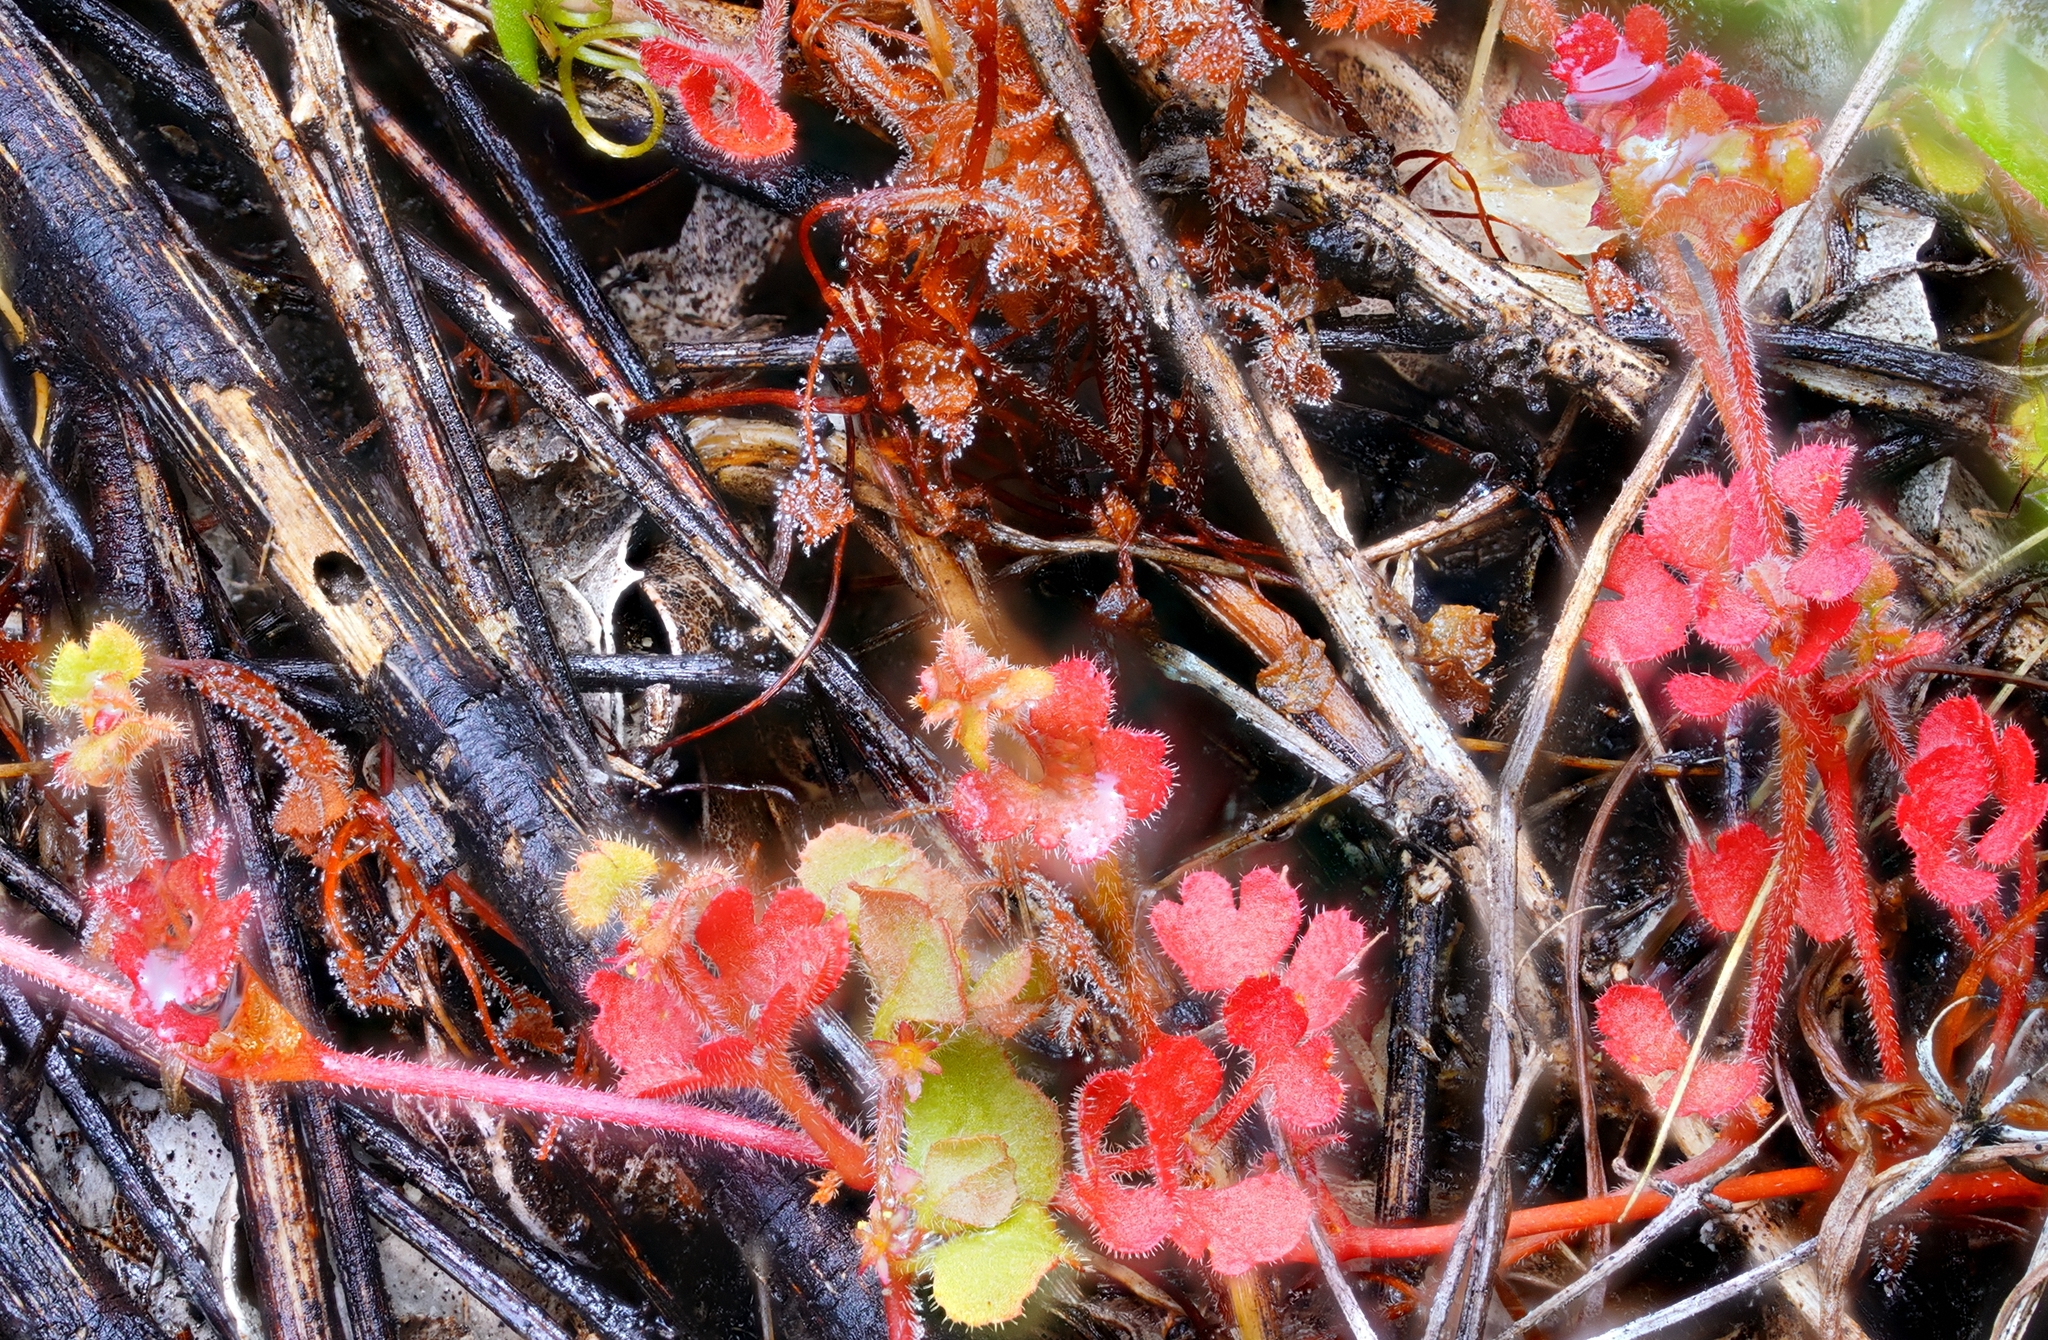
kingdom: Plantae
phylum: Tracheophyta
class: Magnoliopsida
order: Caryophyllales
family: Polygonaceae
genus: Pterostegia
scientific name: Pterostegia drymarioides
